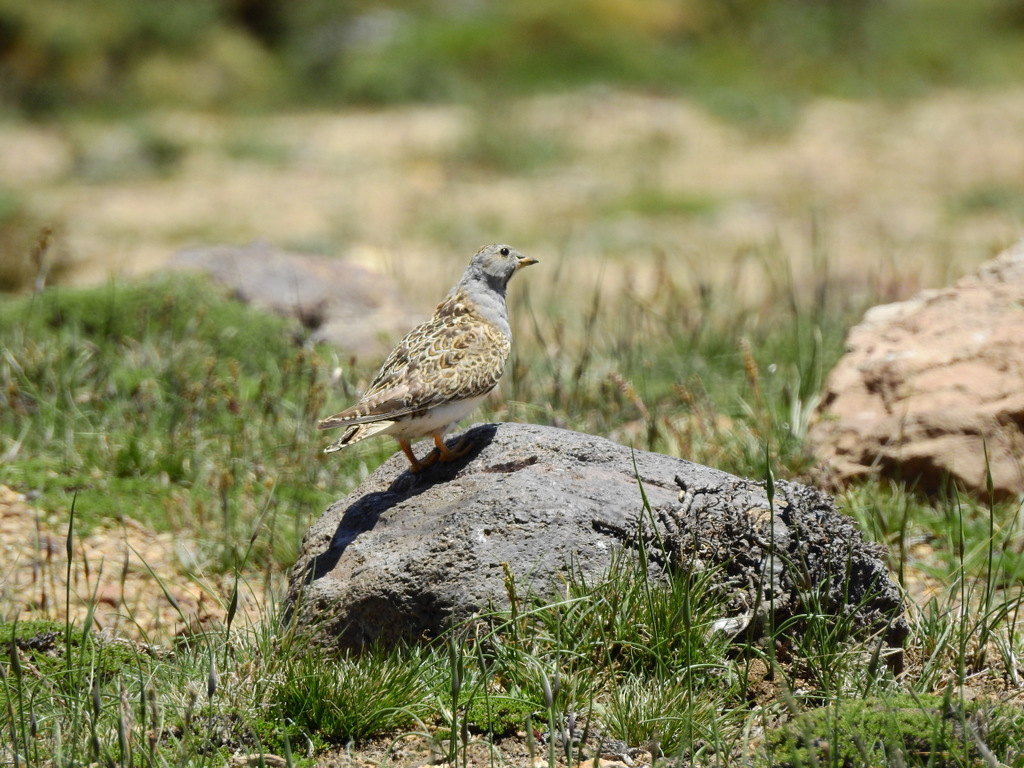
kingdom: Animalia
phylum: Chordata
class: Aves
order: Charadriiformes
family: Thinocoridae
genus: Thinocorus
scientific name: Thinocorus orbignyianus
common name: Grey-breasted seedsnipe
